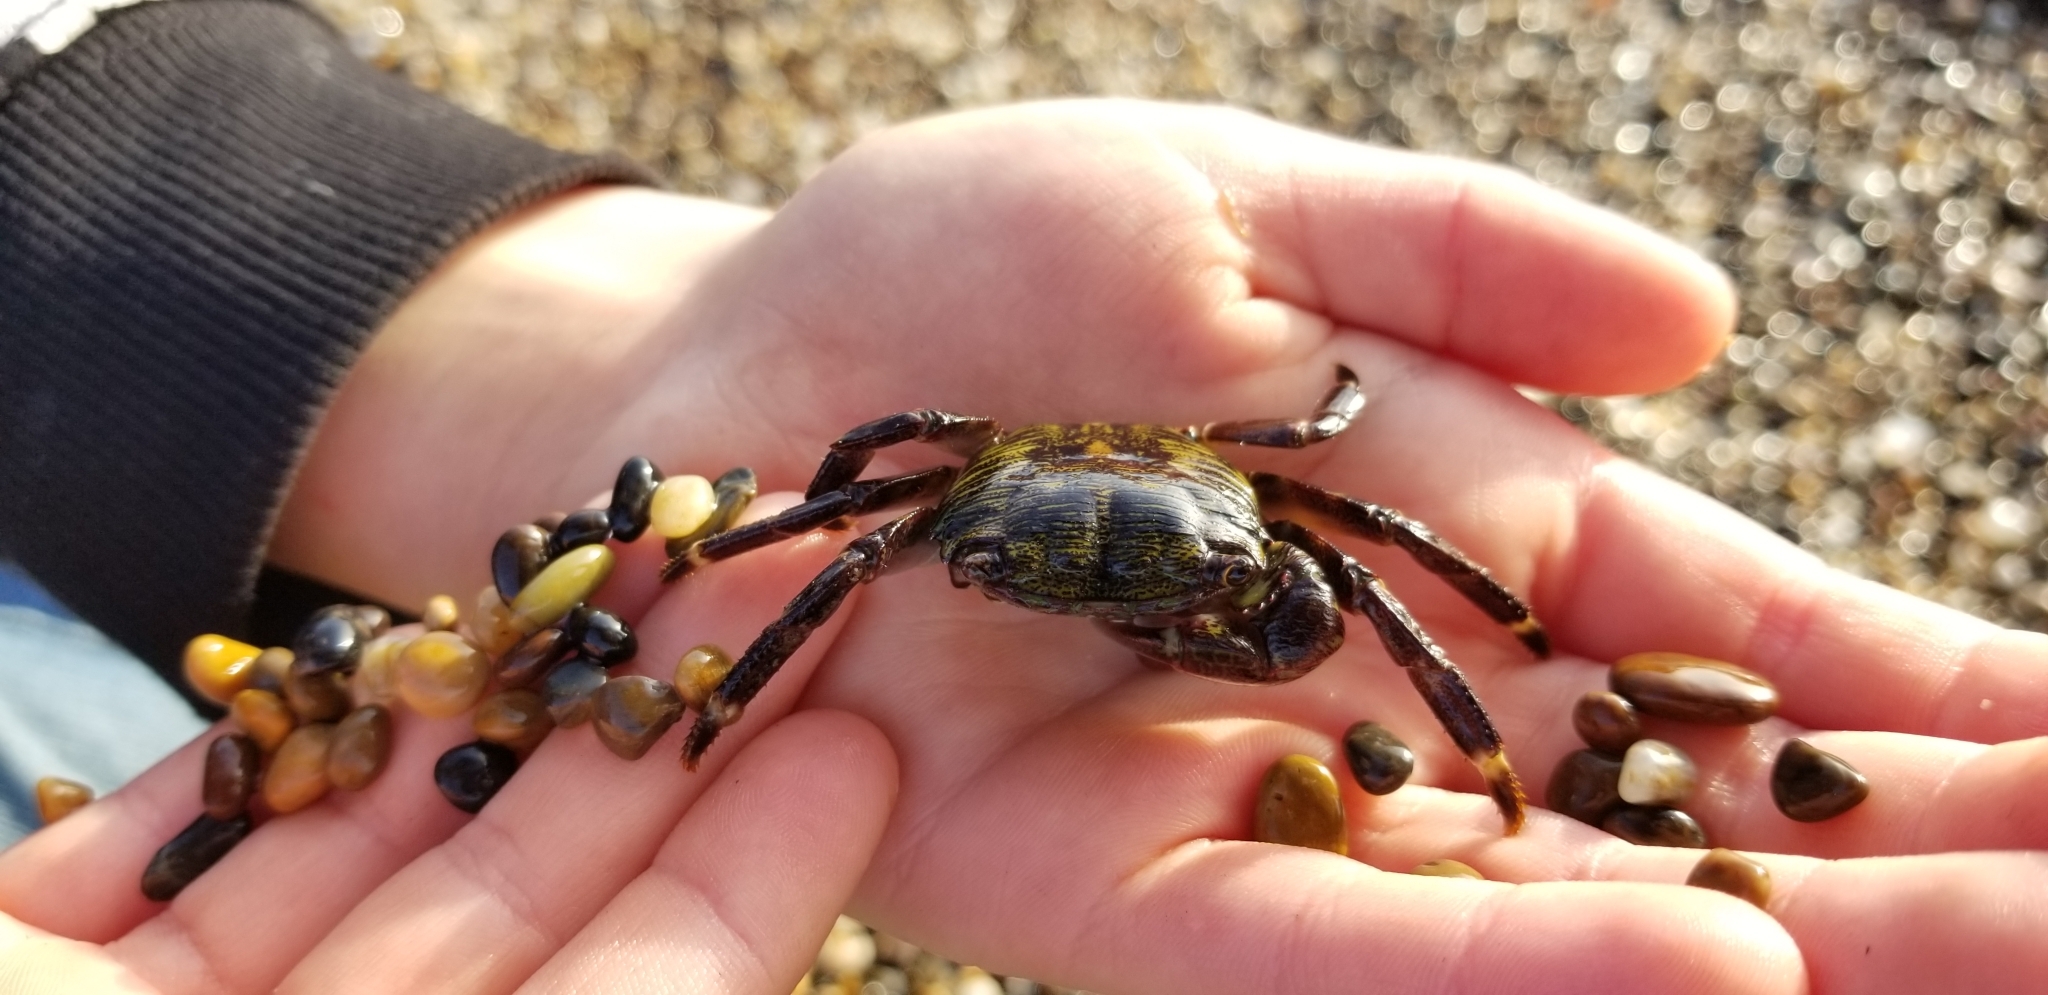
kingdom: Animalia
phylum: Arthropoda
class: Malacostraca
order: Decapoda
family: Grapsidae
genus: Pachygrapsus
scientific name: Pachygrapsus crassipes
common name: Striped shore crab
